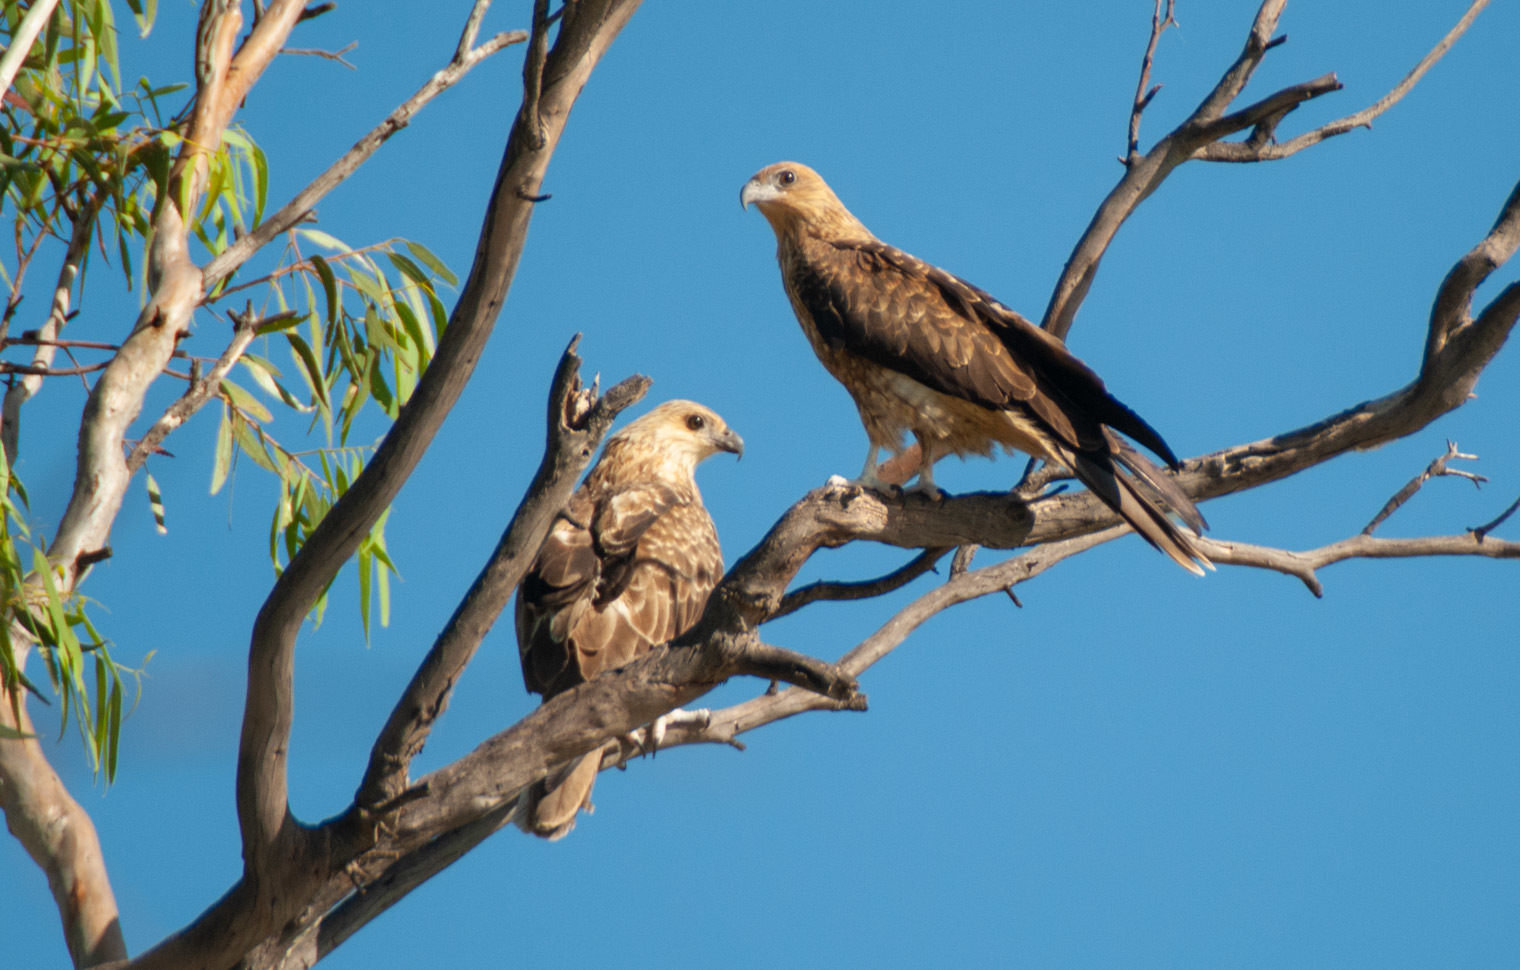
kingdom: Animalia
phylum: Chordata
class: Aves
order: Accipitriformes
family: Accipitridae
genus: Haliastur
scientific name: Haliastur sphenurus
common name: Whistling kite
